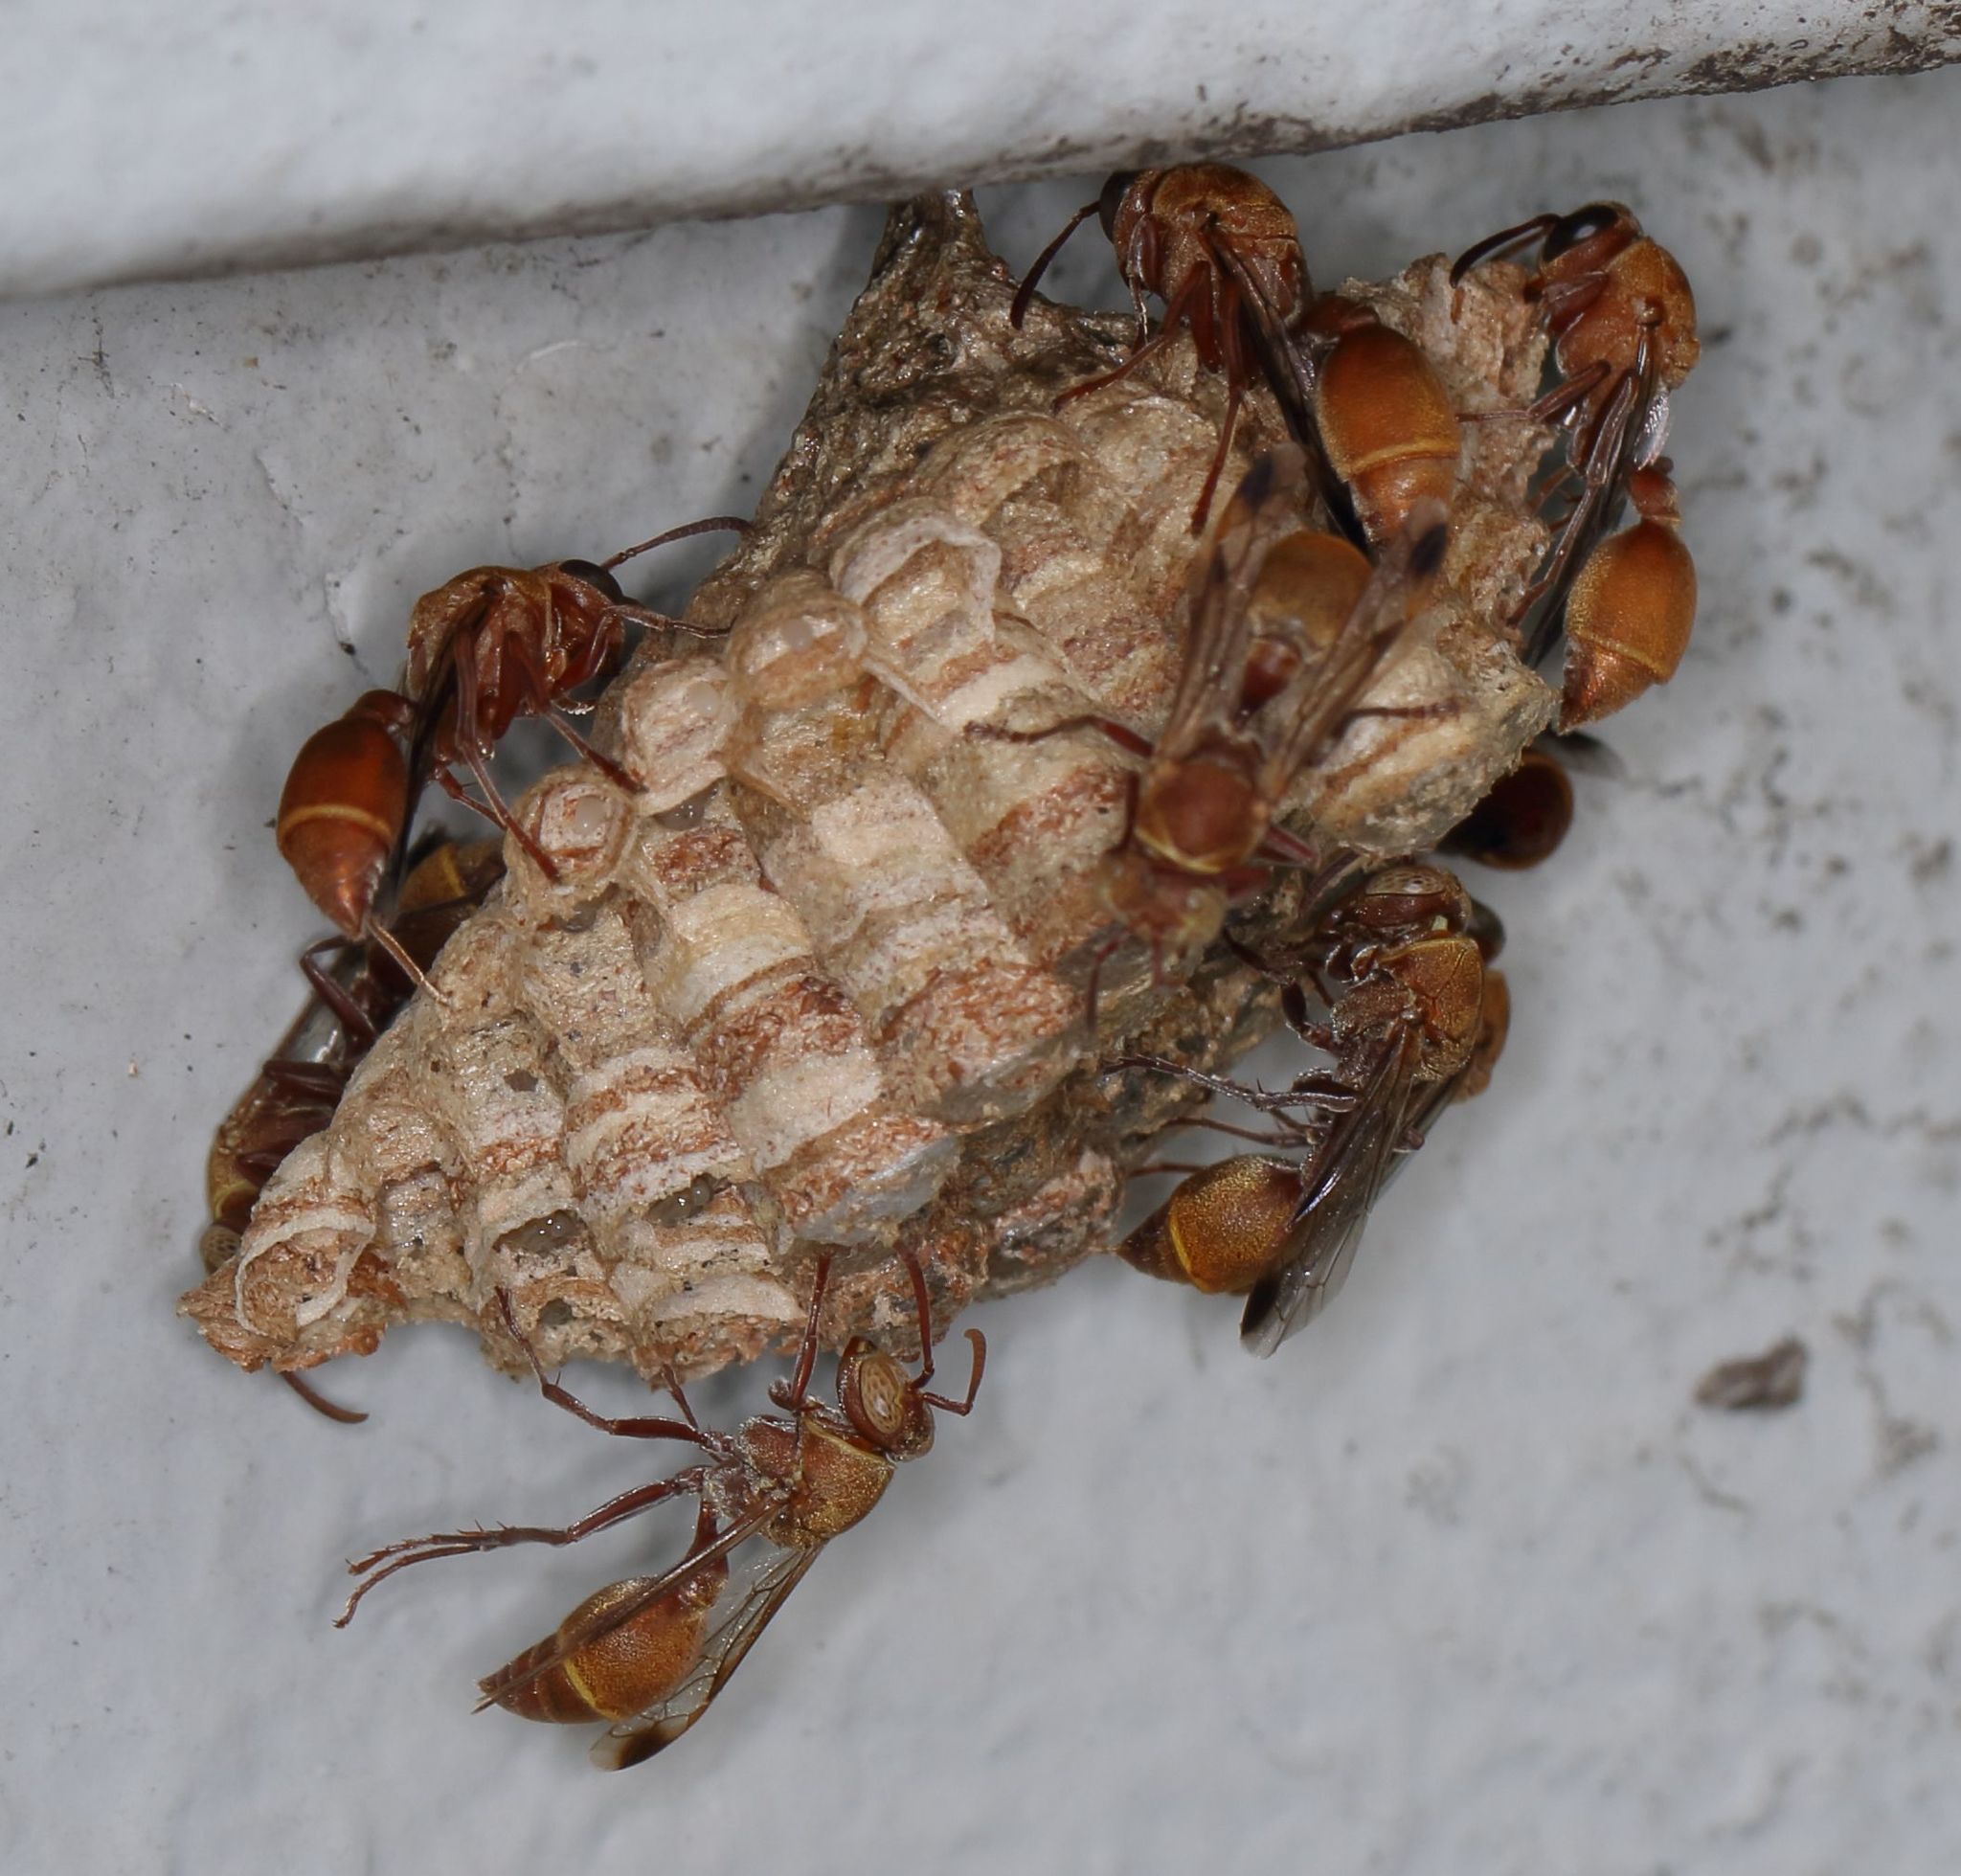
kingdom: Animalia
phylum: Arthropoda
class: Insecta
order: Hymenoptera
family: Vespidae
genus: Ropalidia
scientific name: Ropalidia distigma
